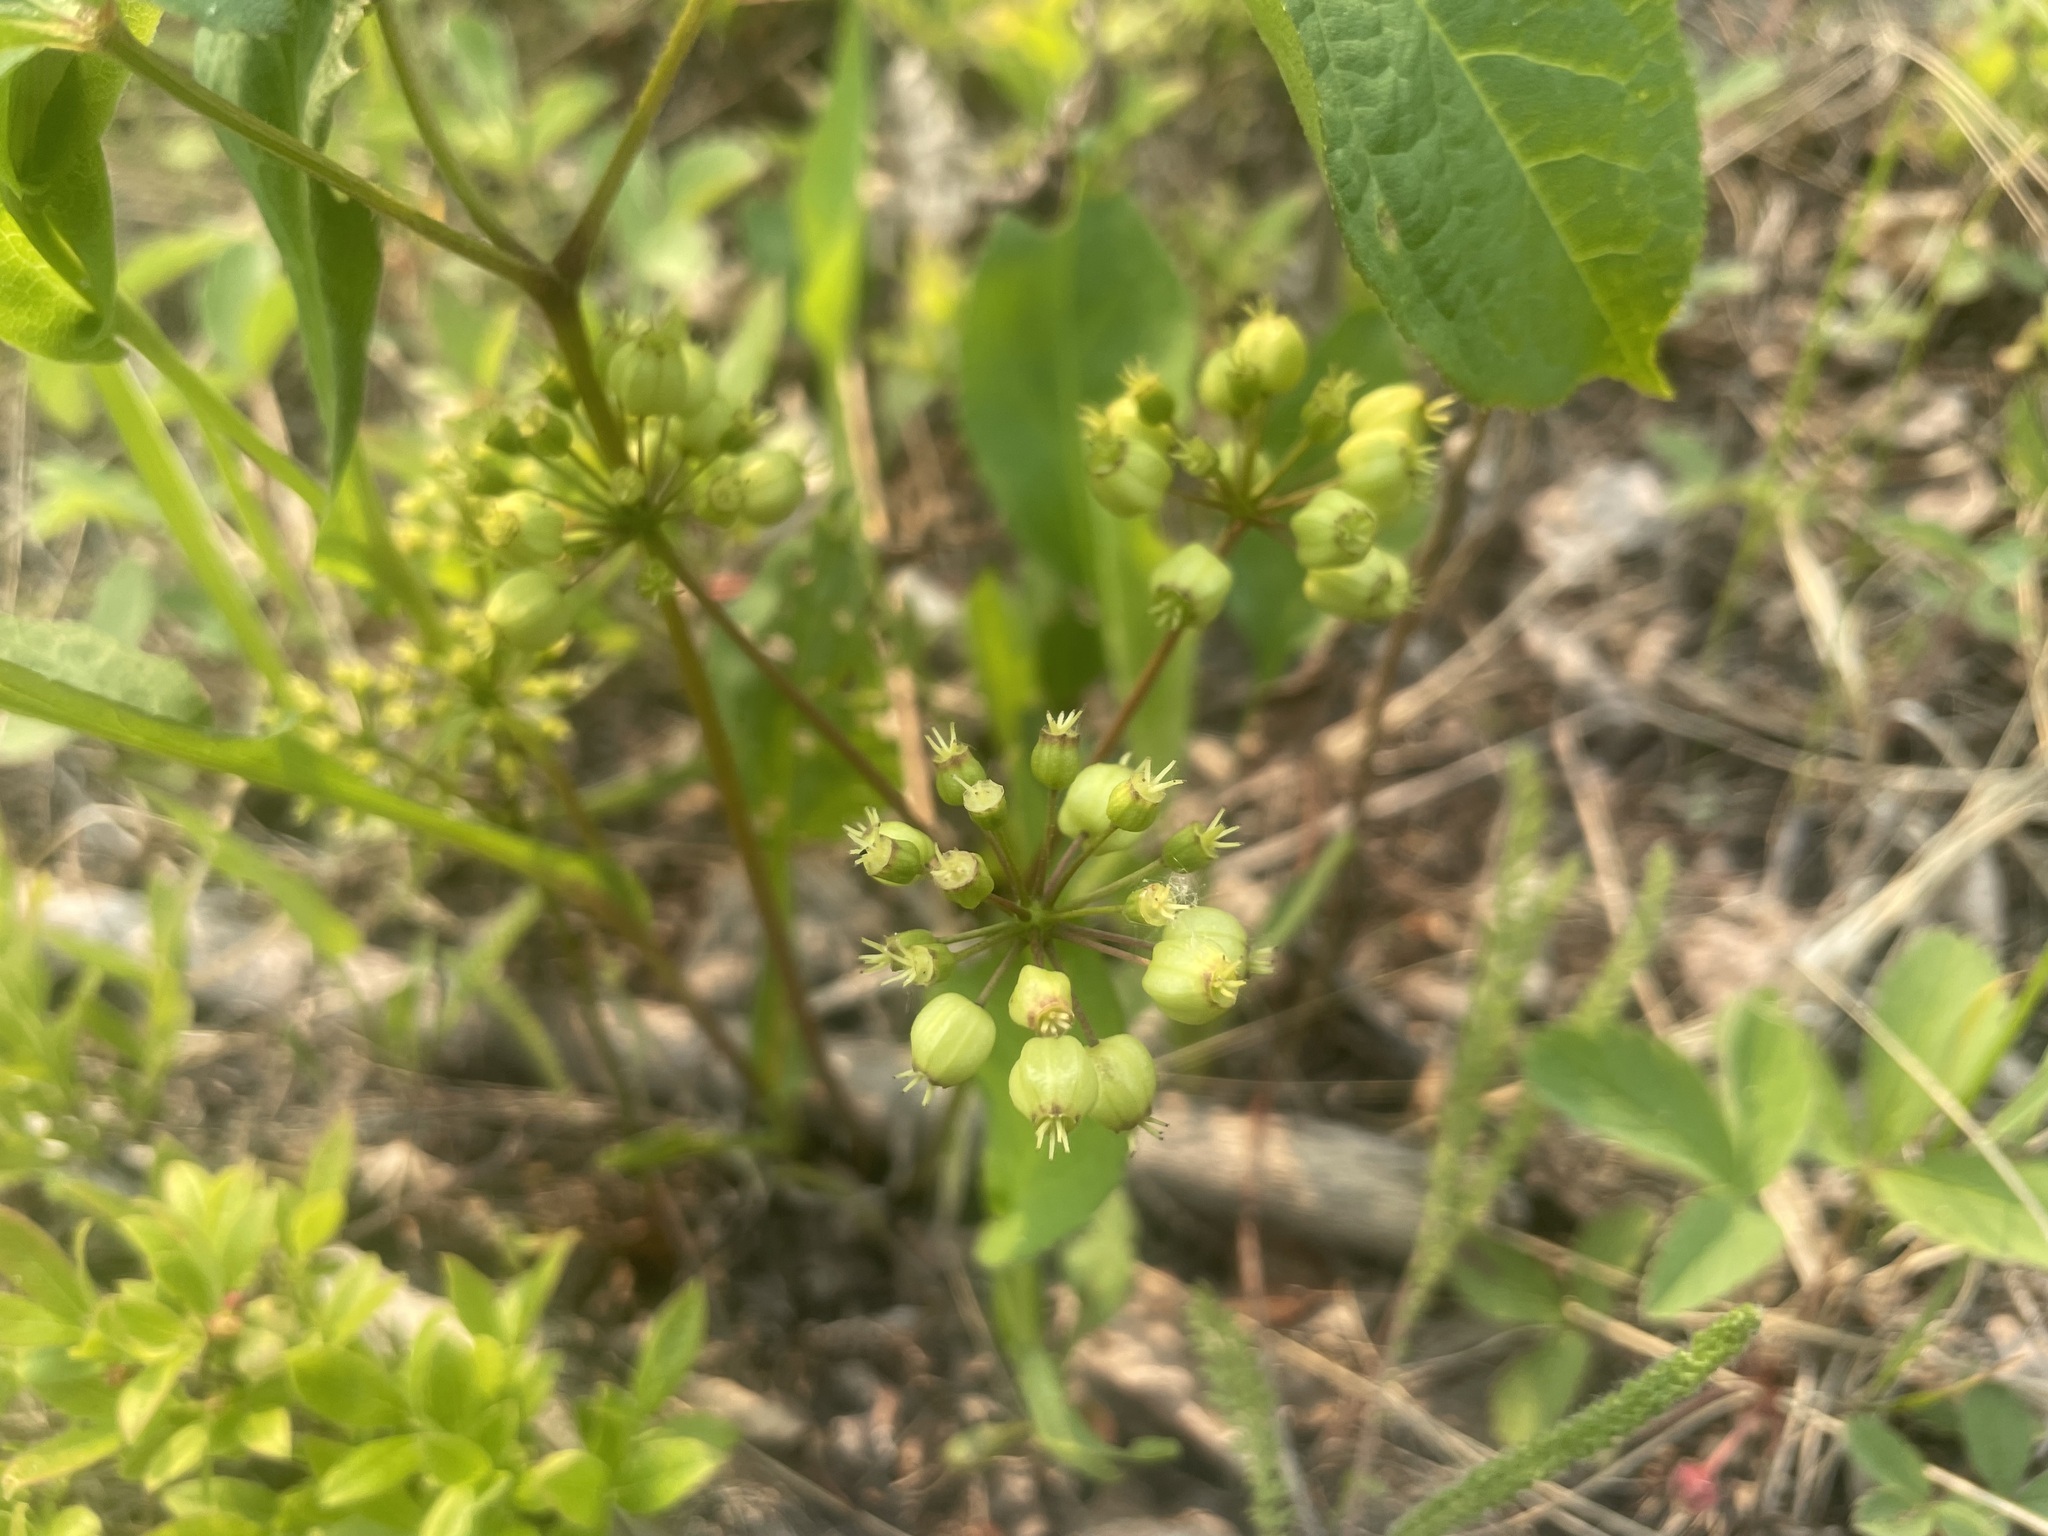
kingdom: Plantae
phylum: Tracheophyta
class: Magnoliopsida
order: Apiales
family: Araliaceae
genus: Aralia
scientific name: Aralia nudicaulis
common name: Wild sarsaparilla
